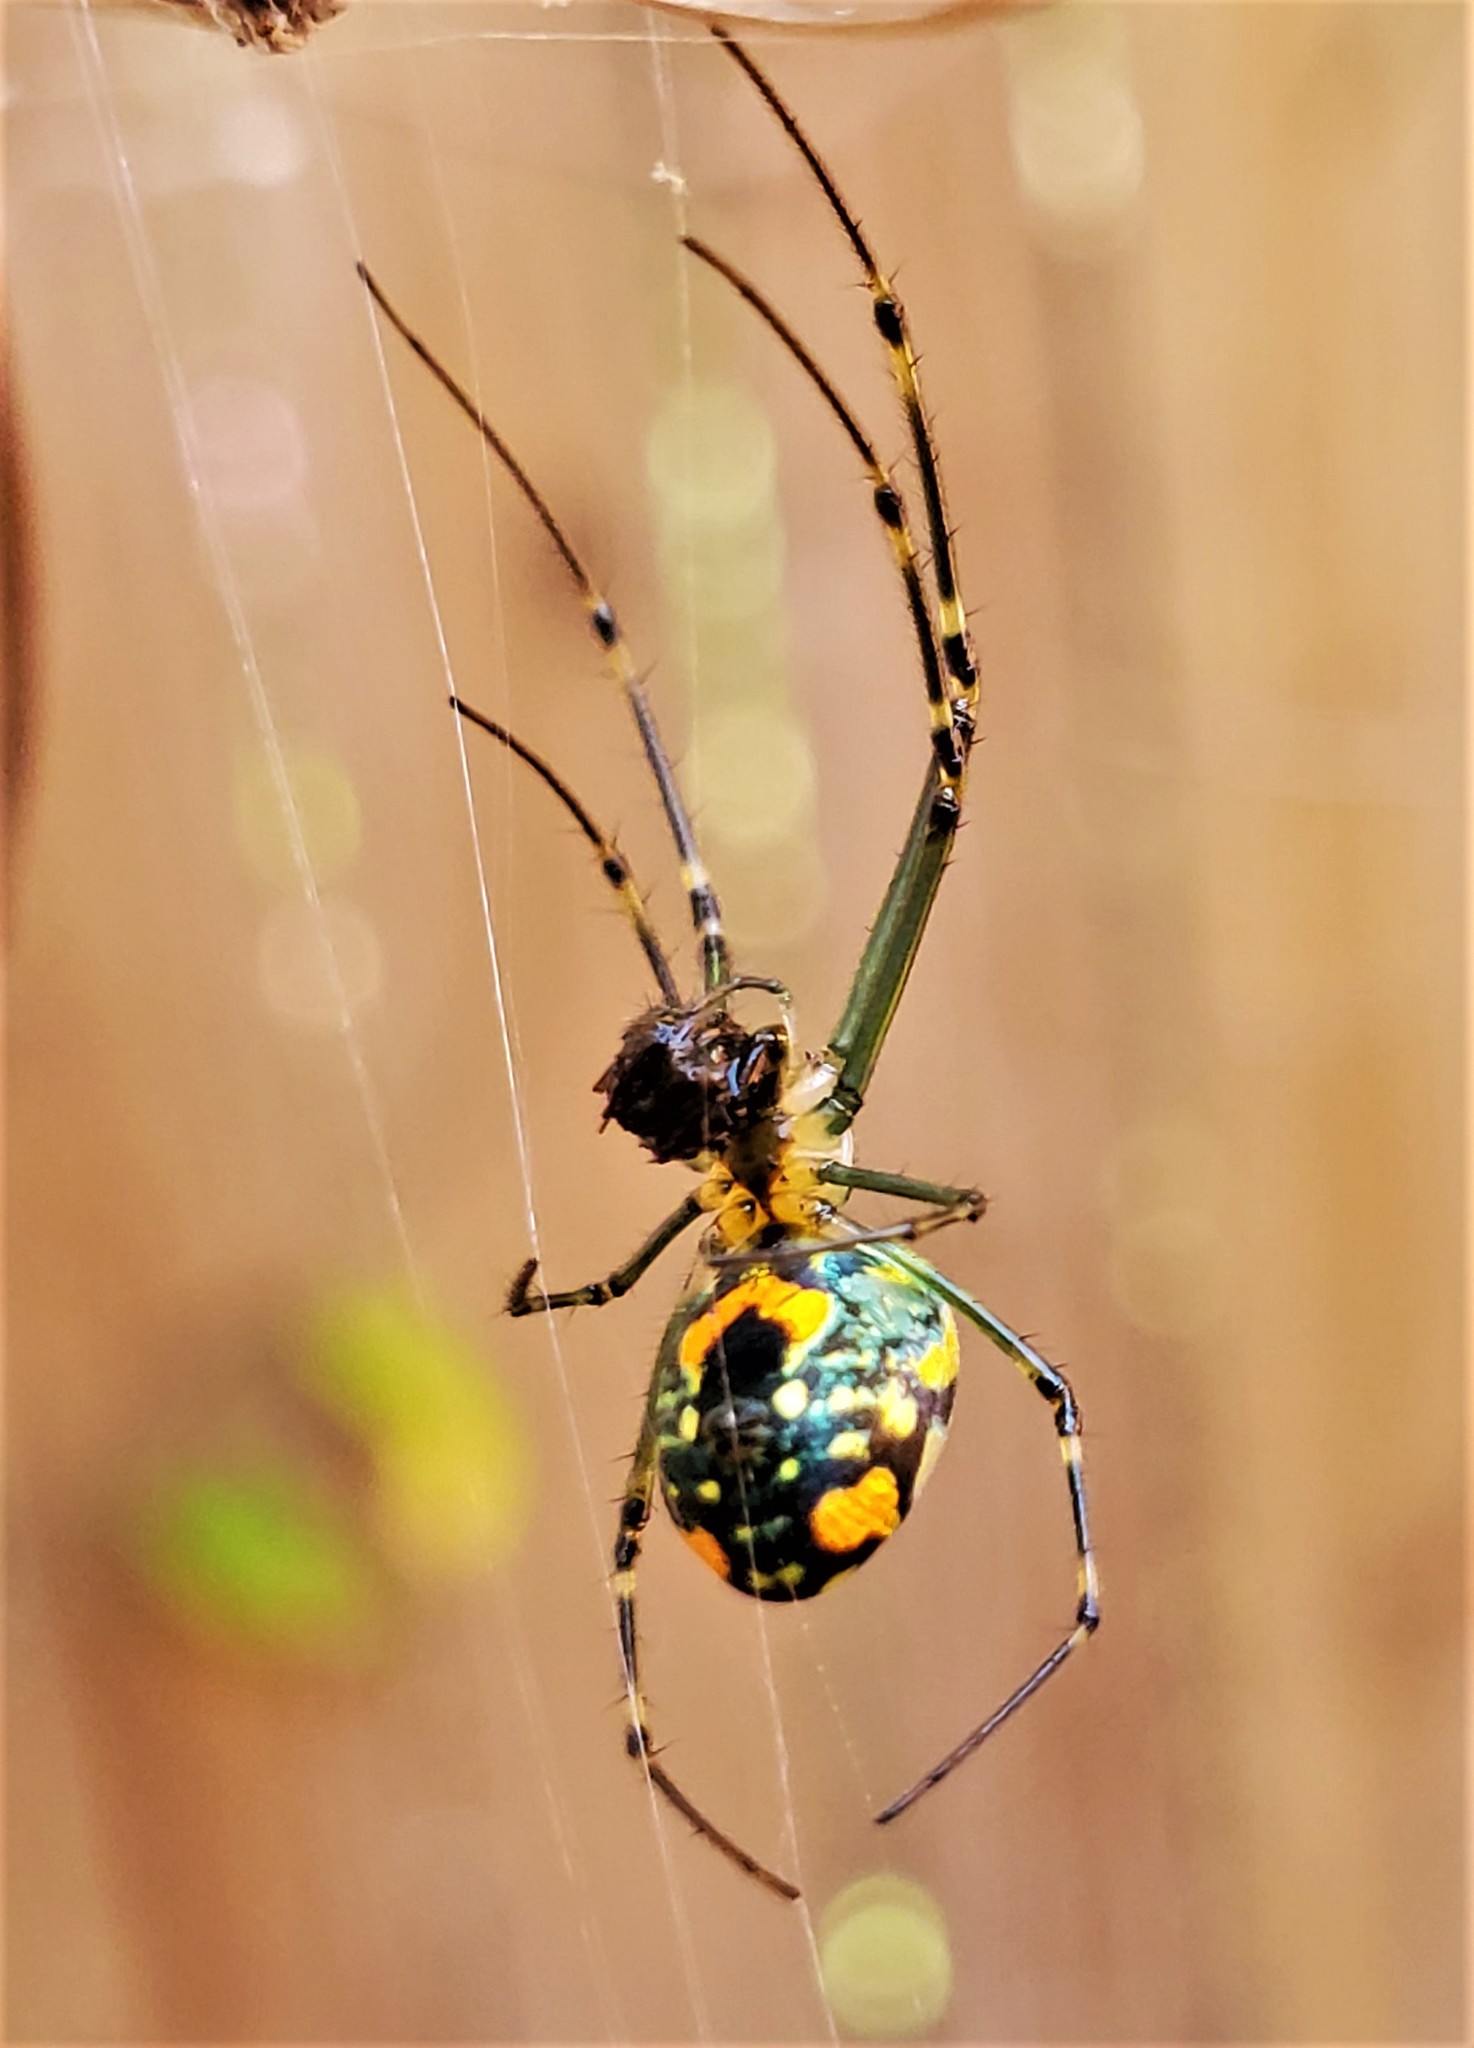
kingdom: Animalia
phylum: Arthropoda
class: Arachnida
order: Araneae
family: Tetragnathidae
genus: Leucauge
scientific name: Leucauge argyrobapta
